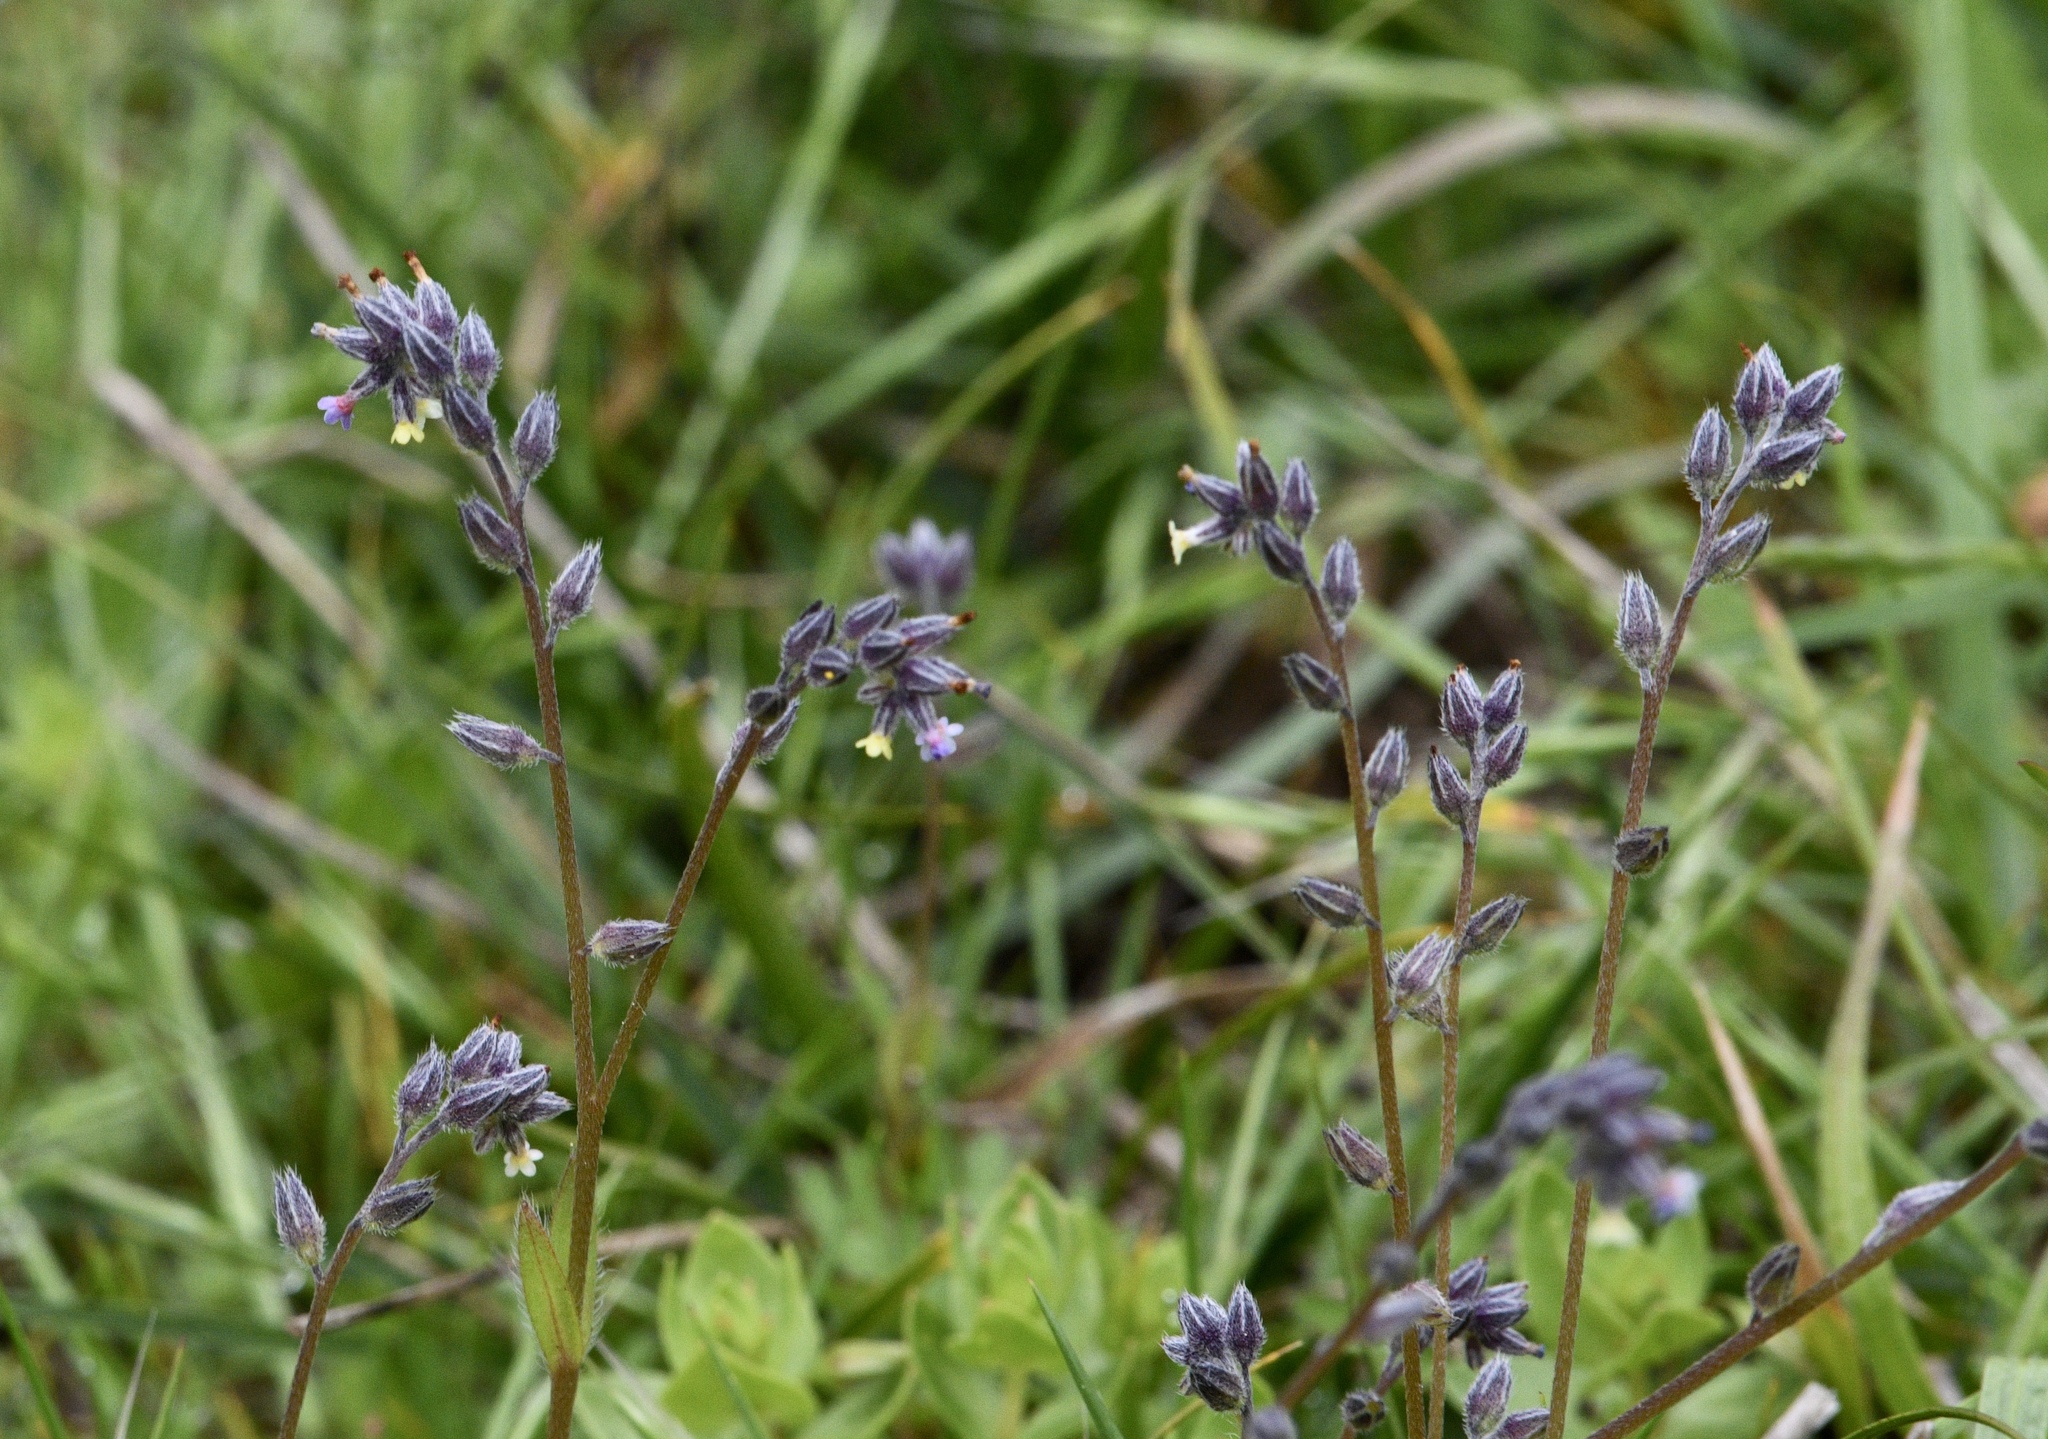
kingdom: Plantae
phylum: Tracheophyta
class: Magnoliopsida
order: Boraginales
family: Boraginaceae
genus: Myosotis
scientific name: Myosotis discolor
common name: Changing forget-me-not
